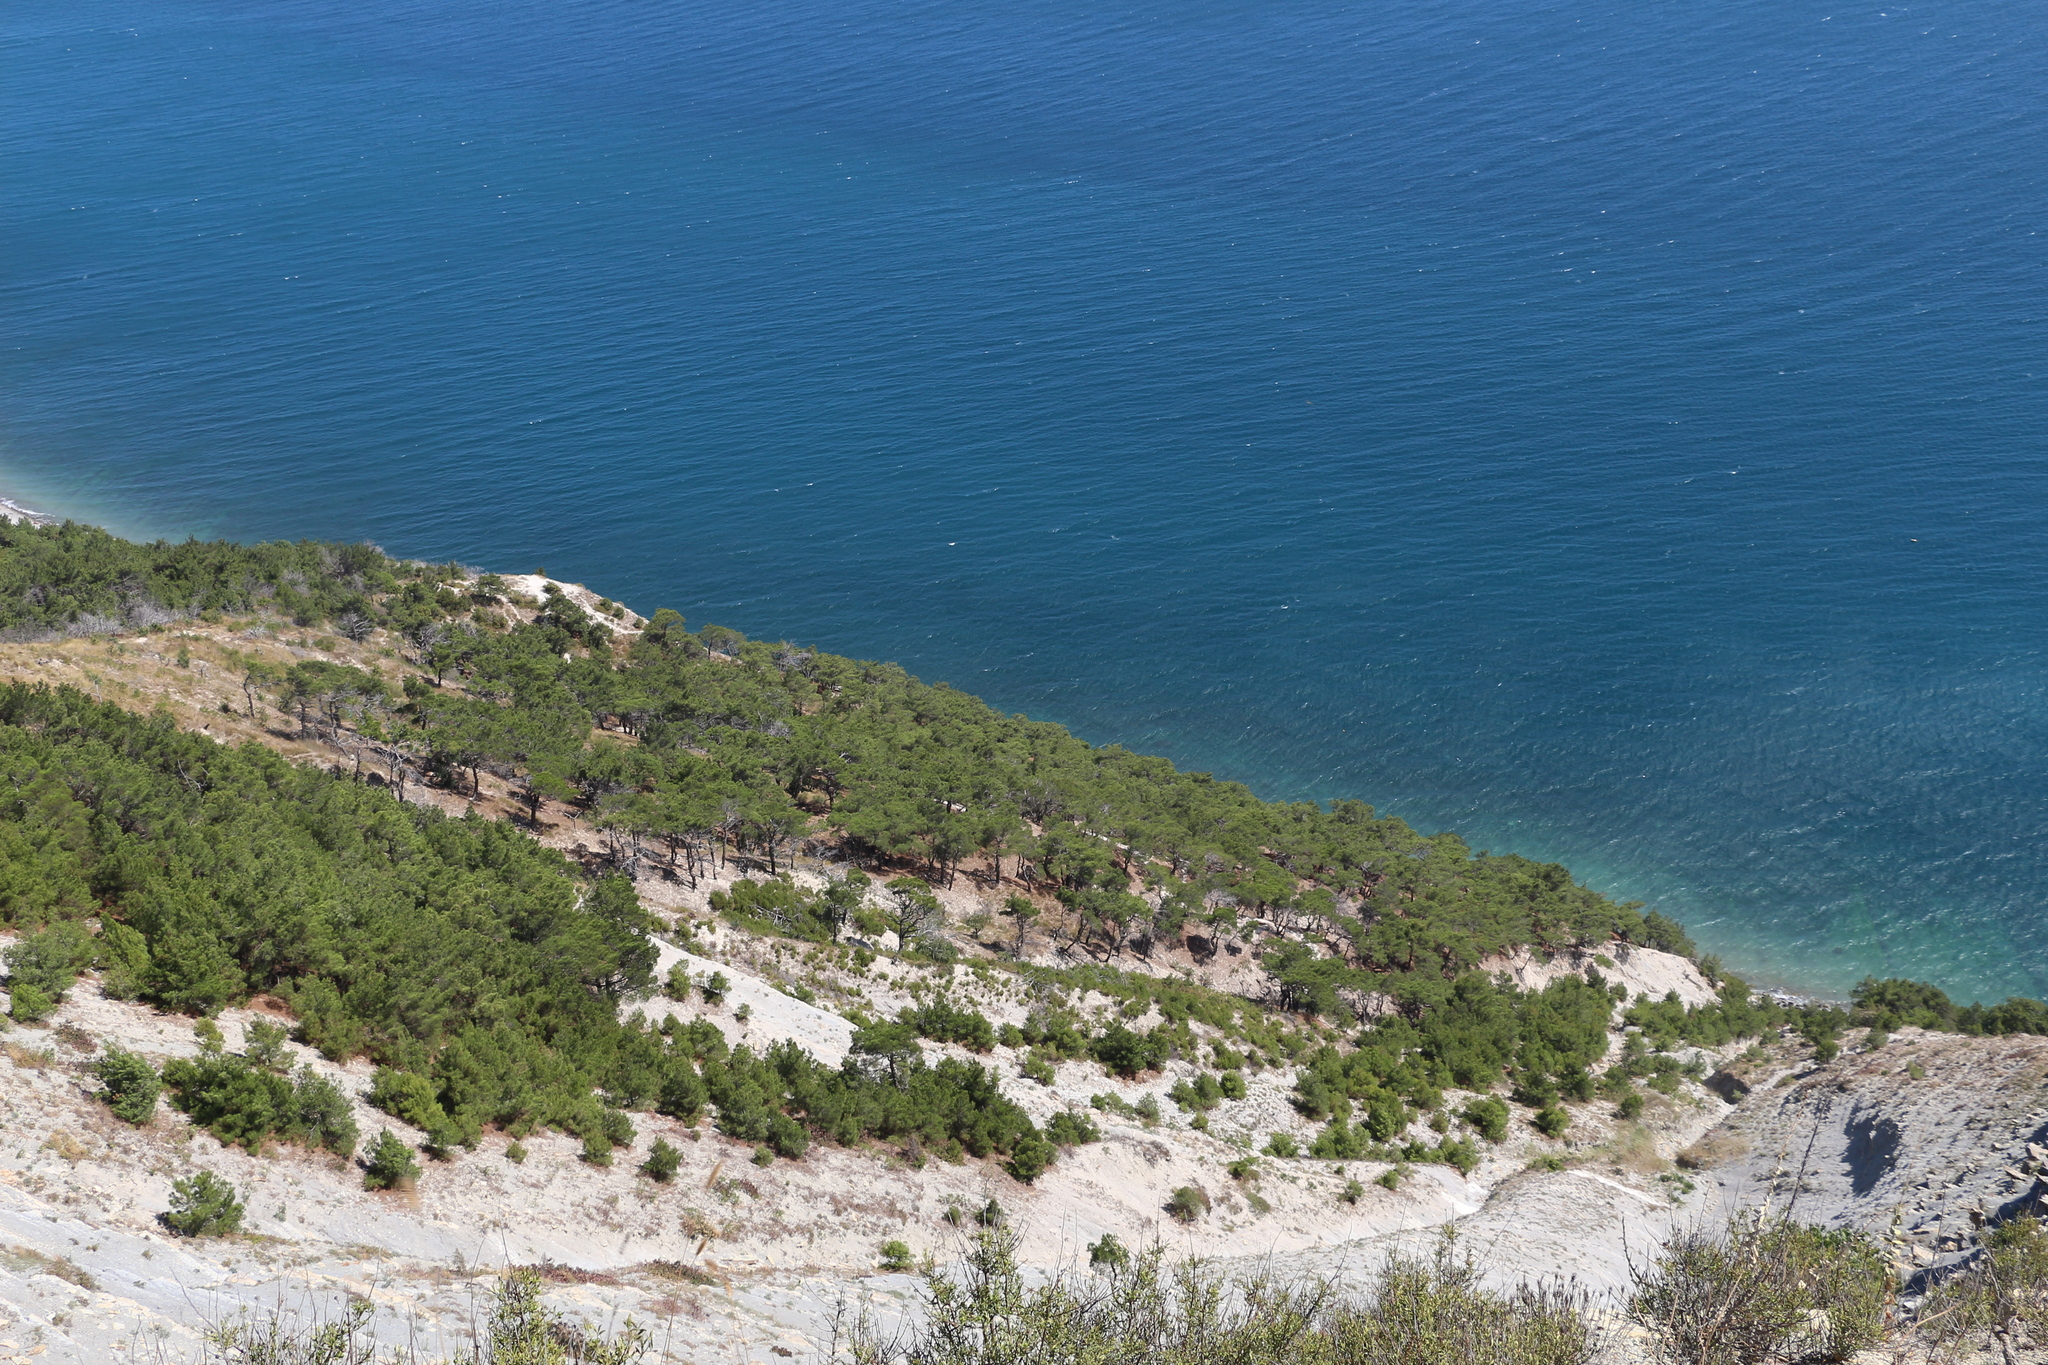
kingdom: Plantae
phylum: Tracheophyta
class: Pinopsida
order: Pinales
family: Pinaceae
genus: Pinus
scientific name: Pinus brutia
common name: Turkish pine
